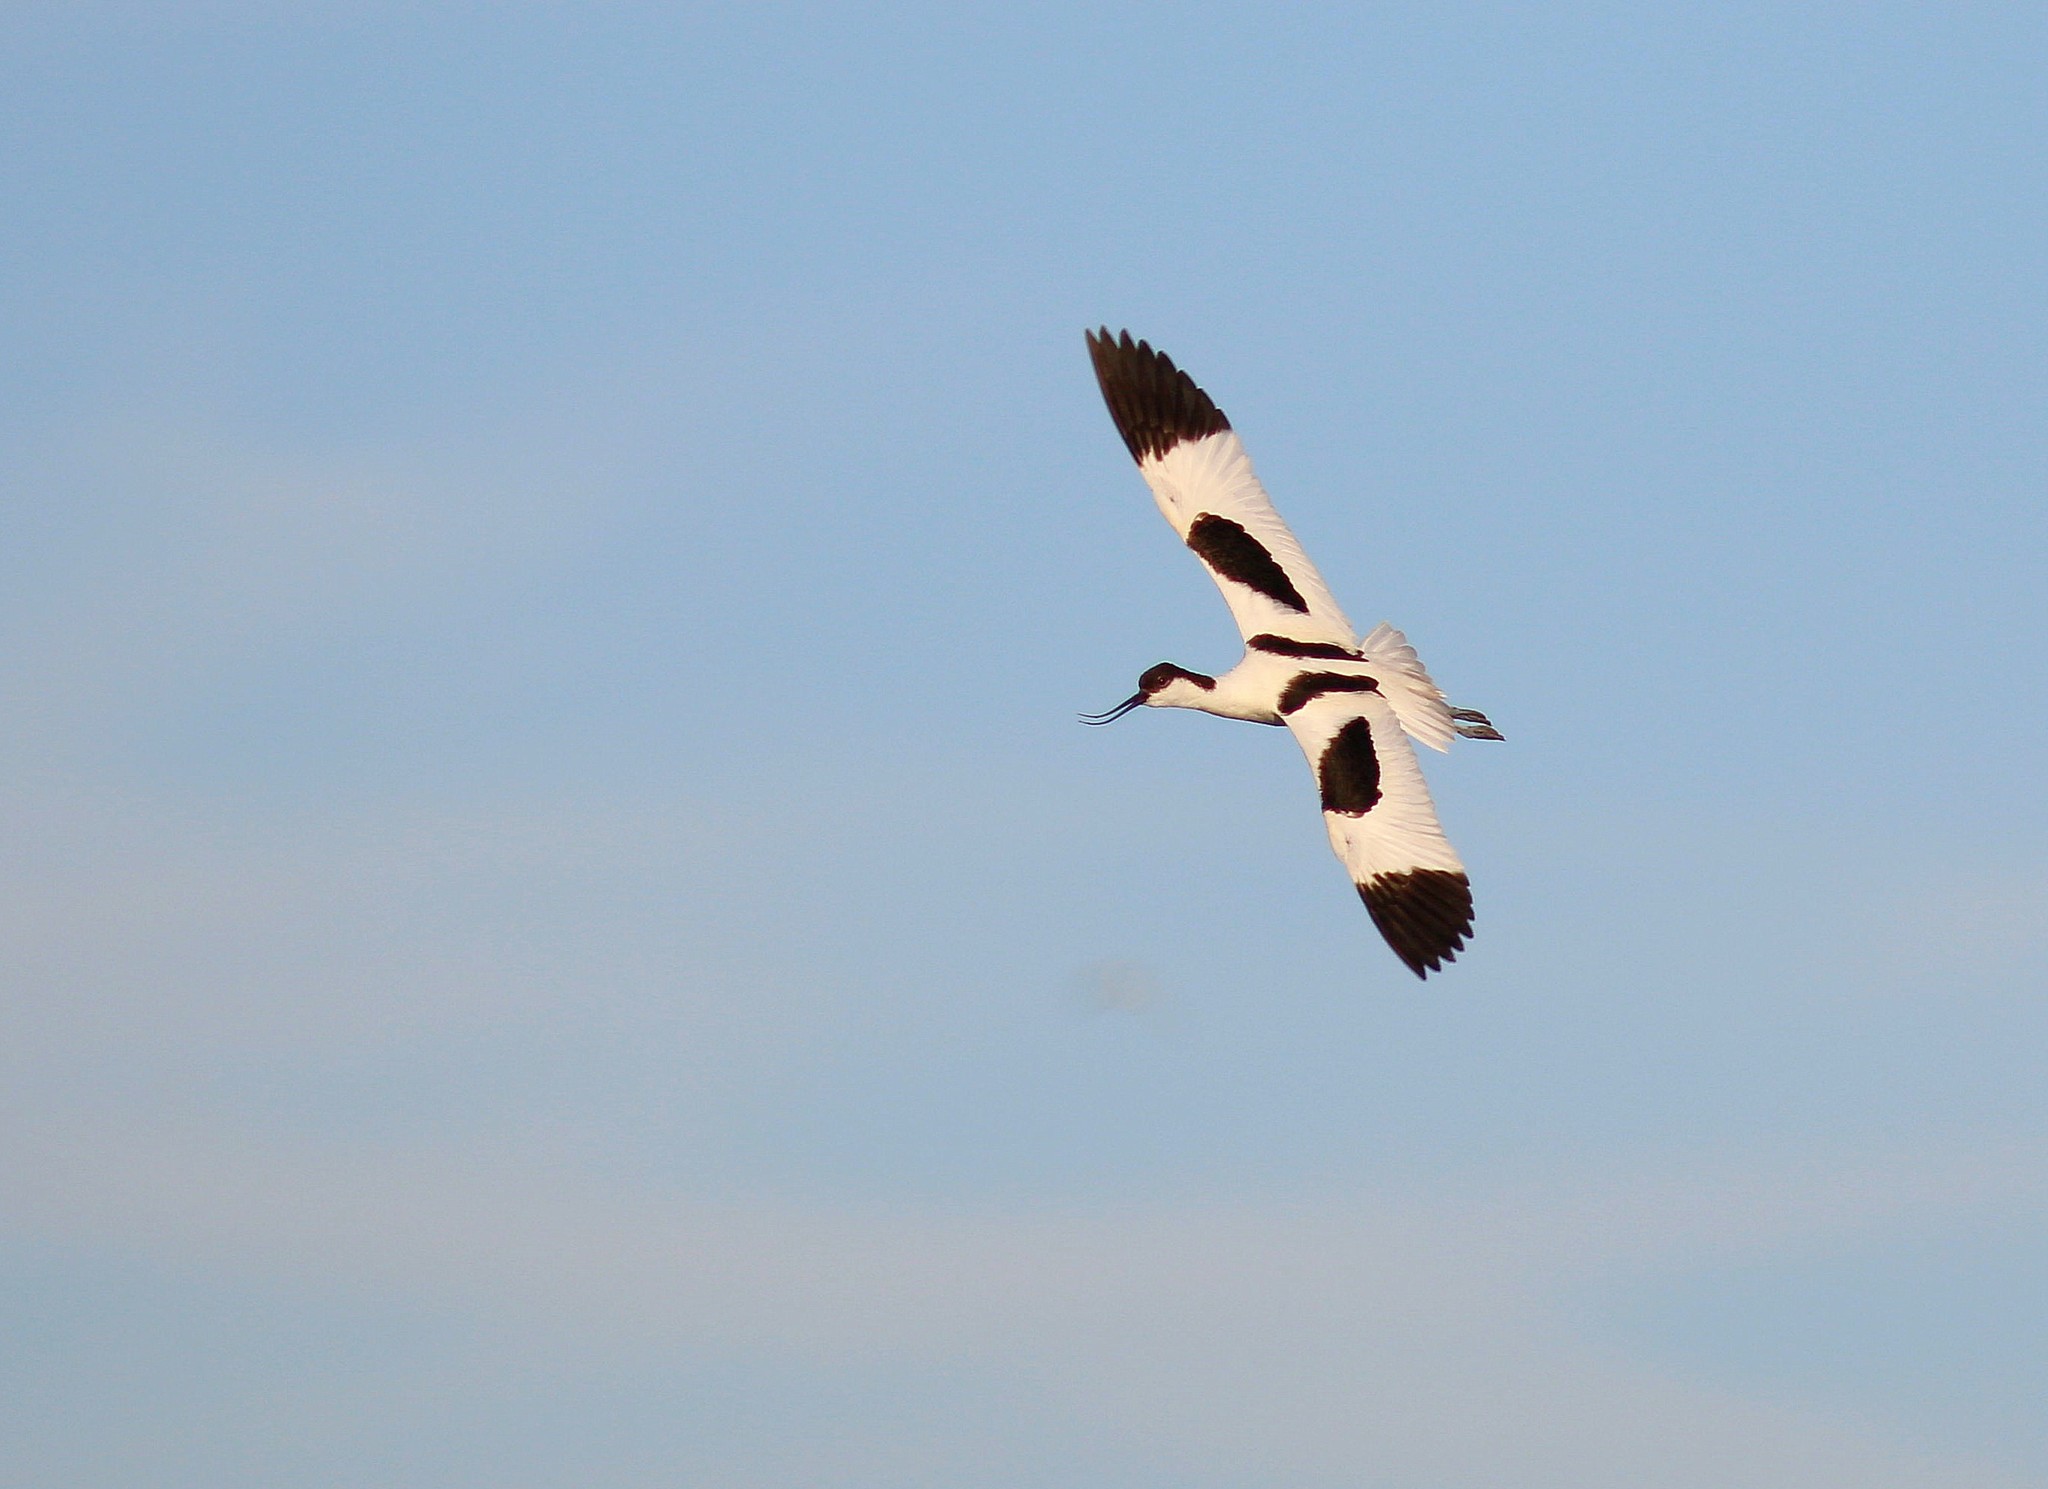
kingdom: Animalia
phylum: Chordata
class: Aves
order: Charadriiformes
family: Recurvirostridae
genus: Recurvirostra
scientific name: Recurvirostra avosetta
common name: Pied avocet
